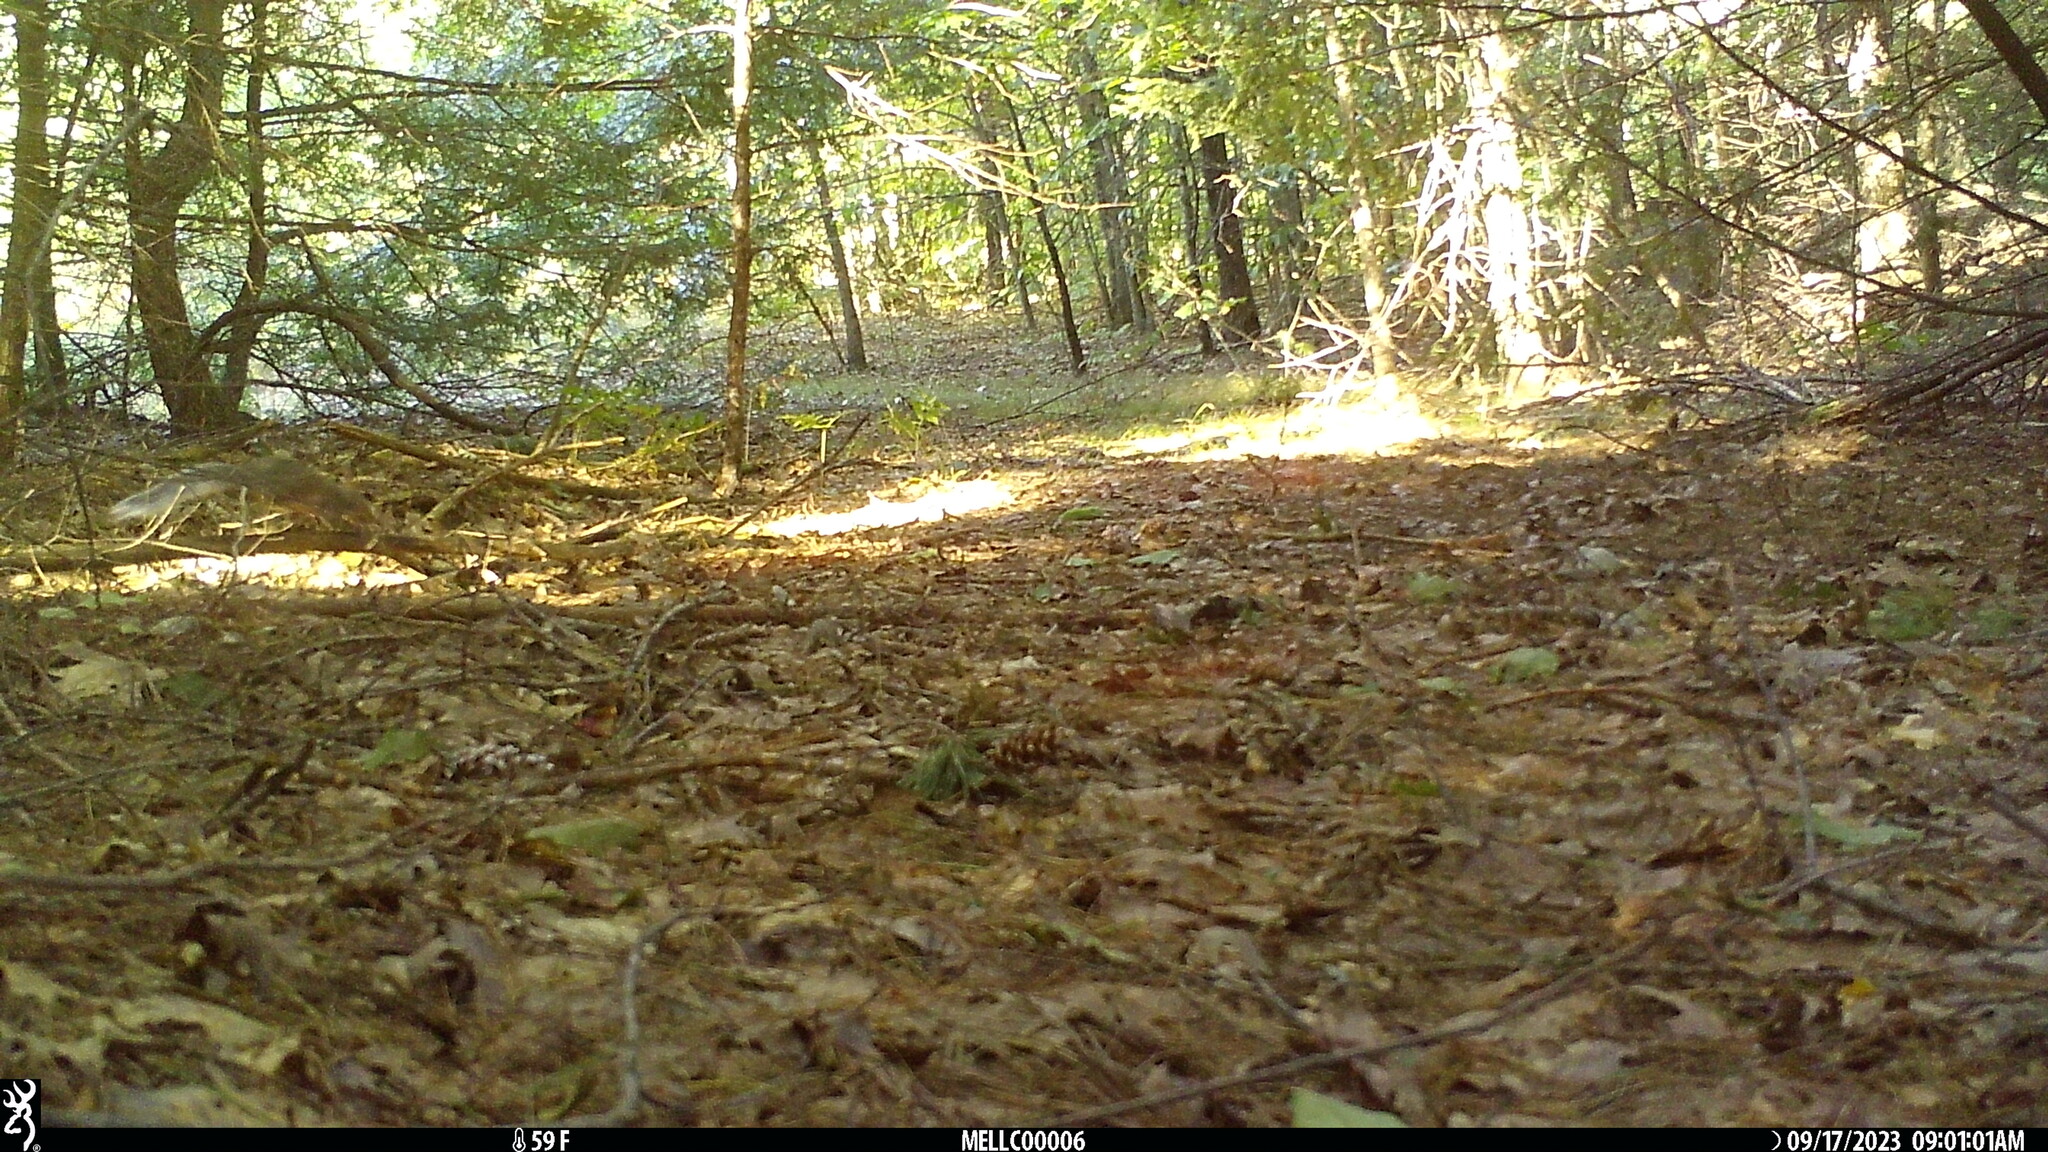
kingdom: Animalia
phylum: Chordata
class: Mammalia
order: Rodentia
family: Sciuridae
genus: Sciurus
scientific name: Sciurus carolinensis
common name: Eastern gray squirrel
